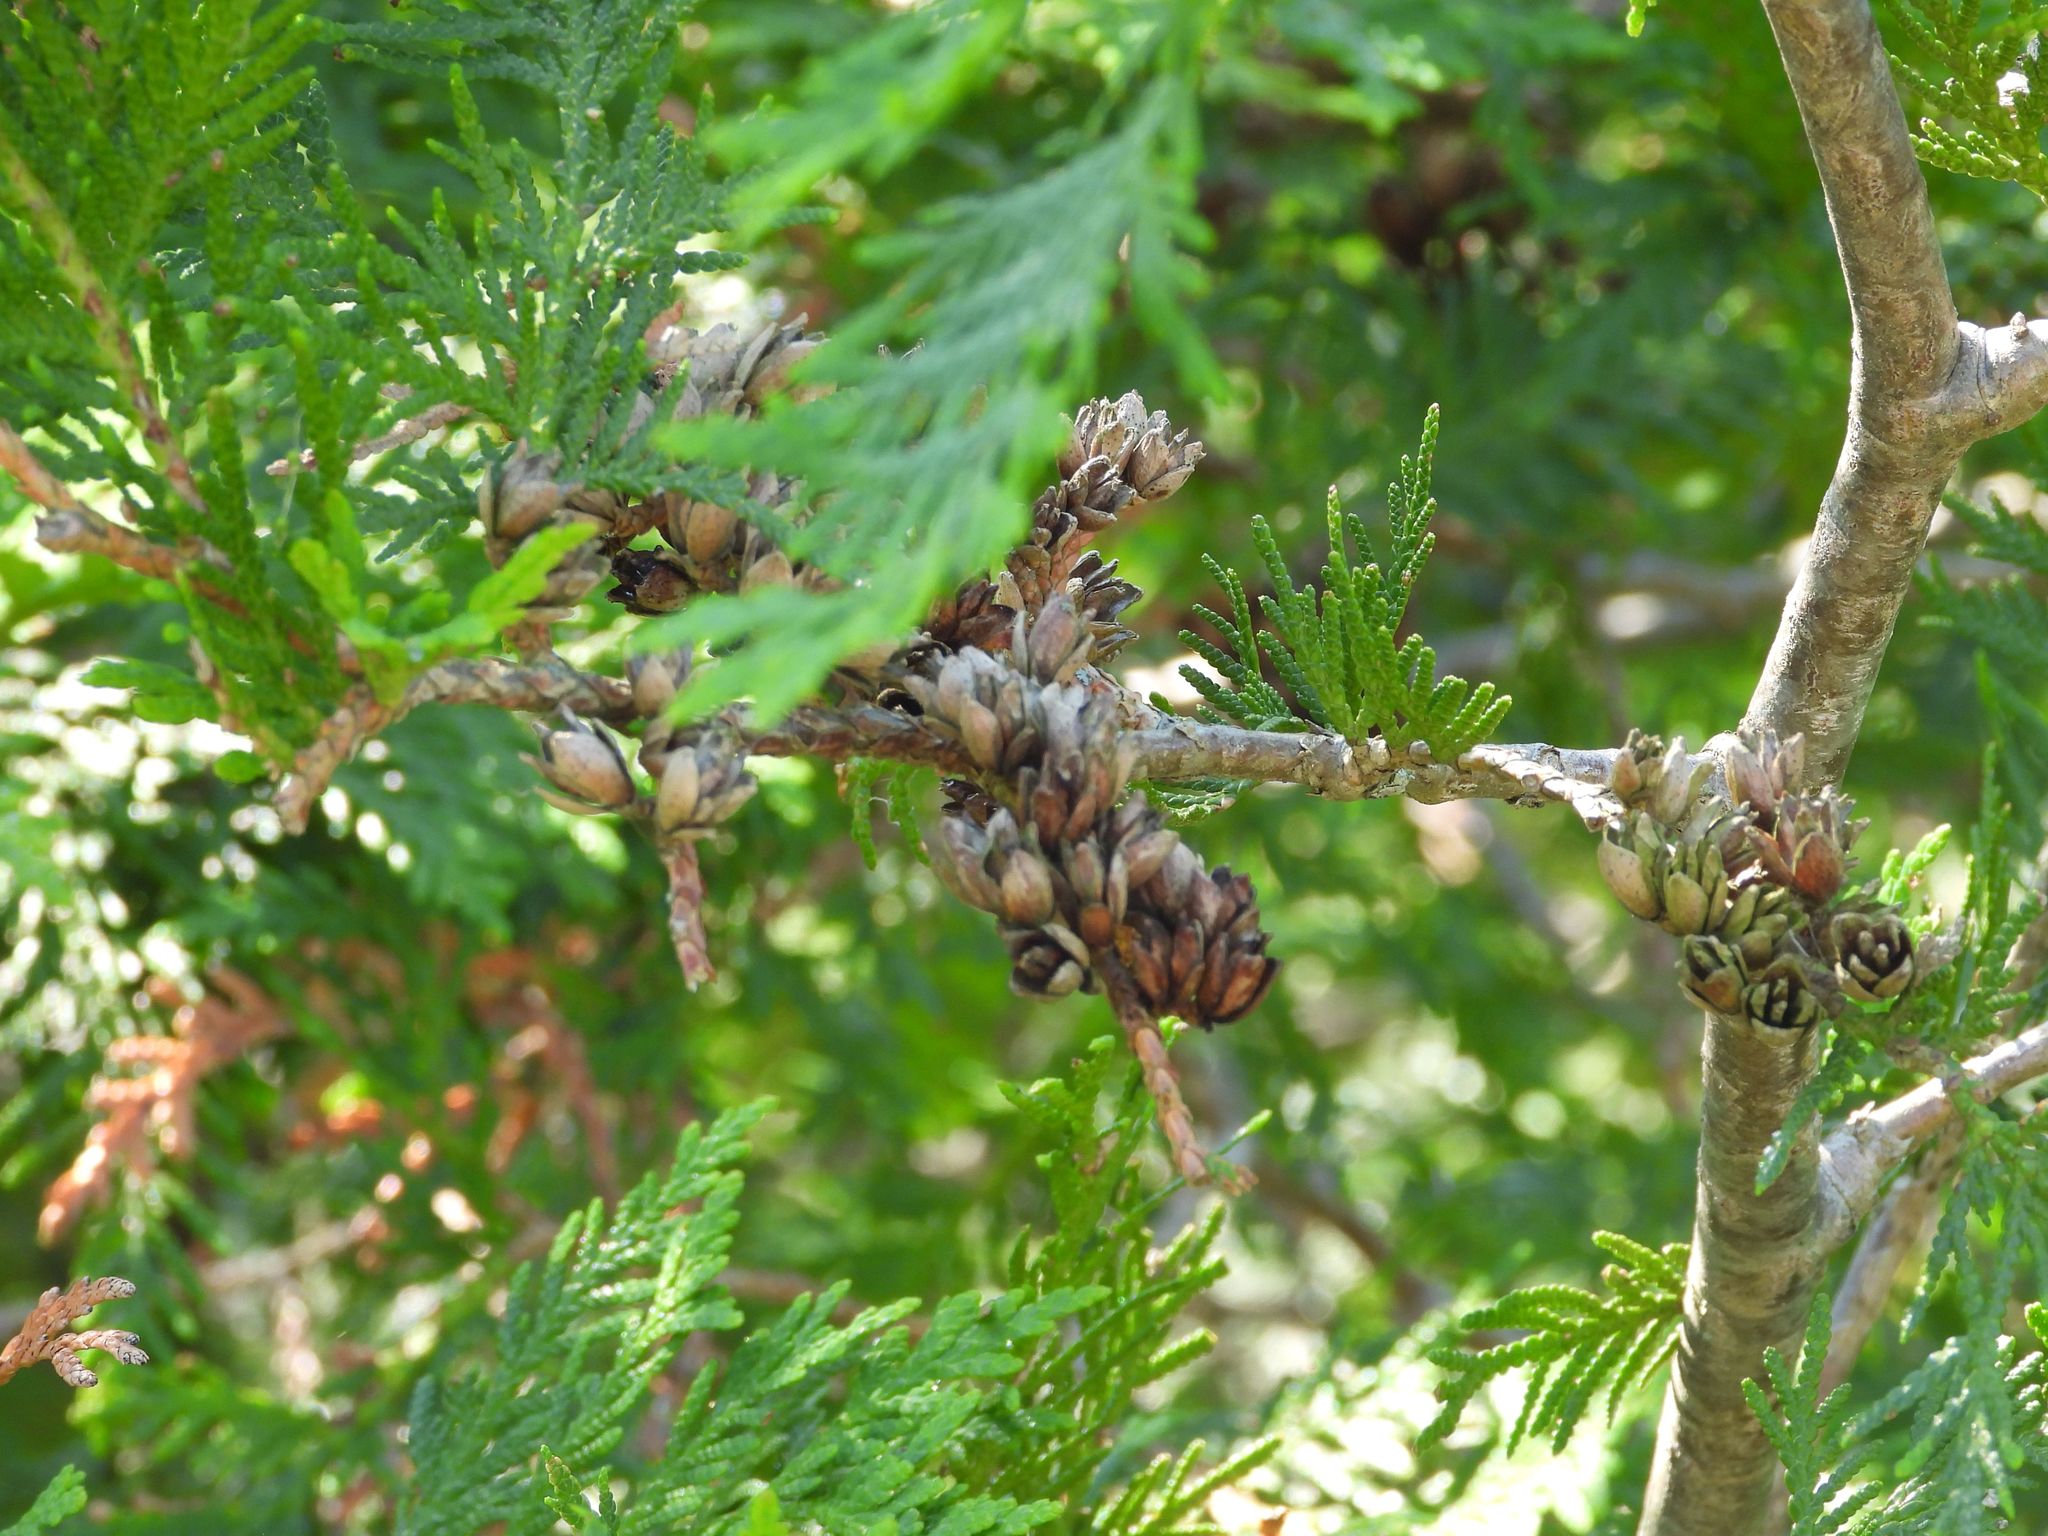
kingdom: Plantae
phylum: Tracheophyta
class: Pinopsida
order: Pinales
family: Cupressaceae
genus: Thuja
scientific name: Thuja occidentalis
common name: Northern white-cedar
